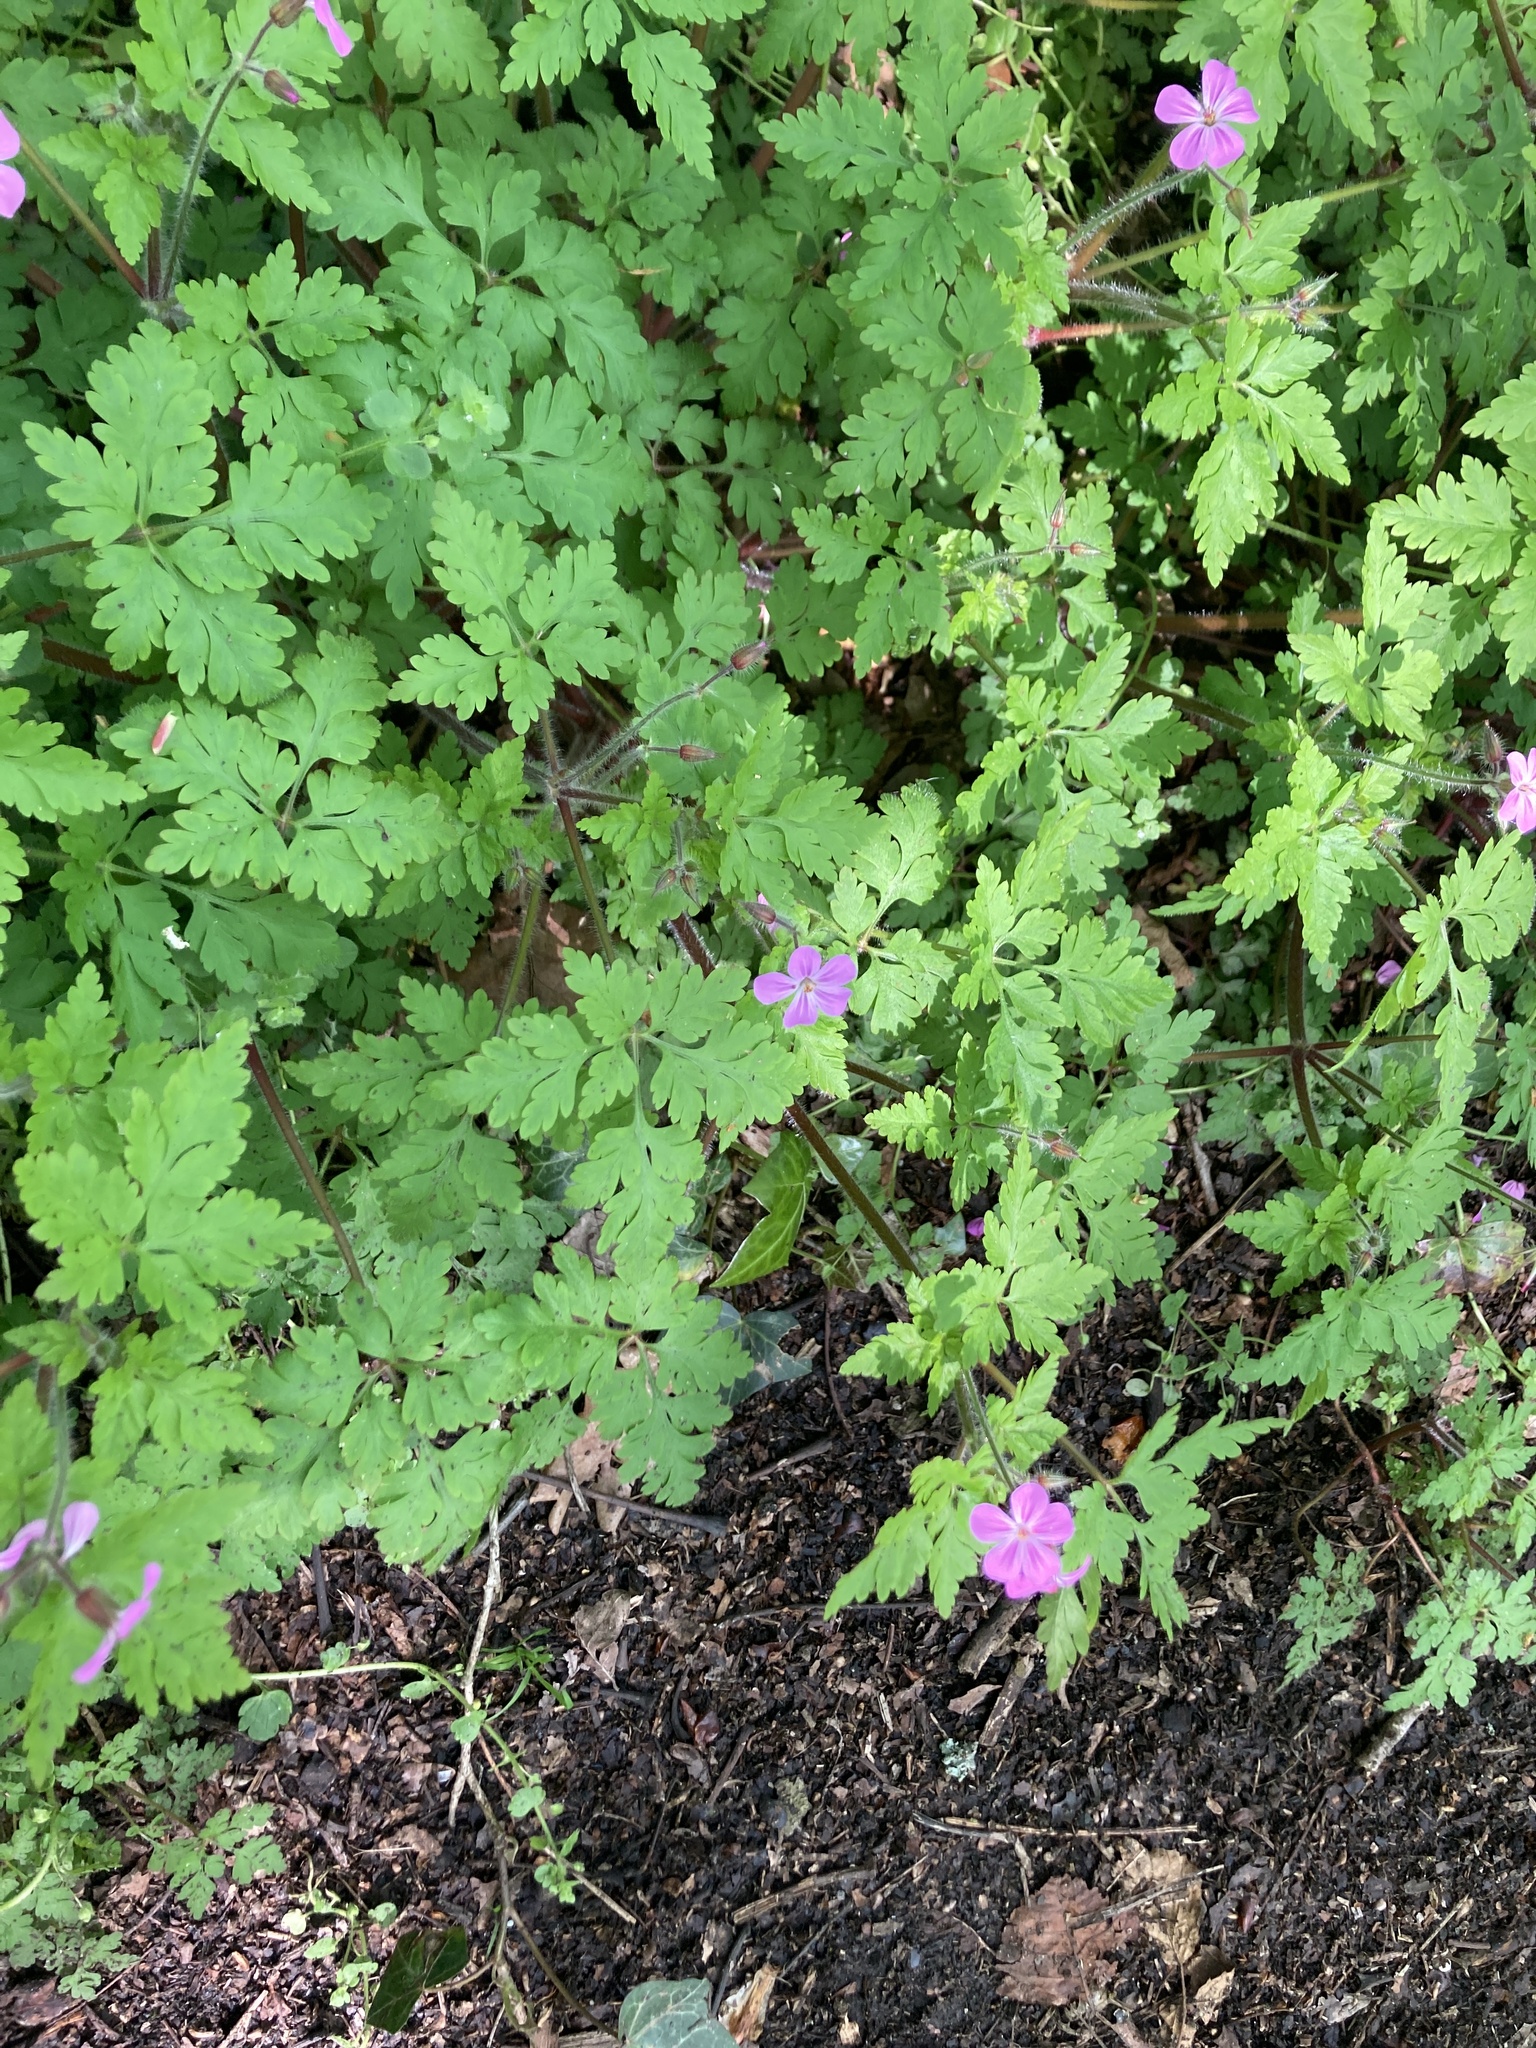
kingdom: Plantae
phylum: Tracheophyta
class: Magnoliopsida
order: Geraniales
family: Geraniaceae
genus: Geranium
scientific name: Geranium robertianum
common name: Herb-robert
